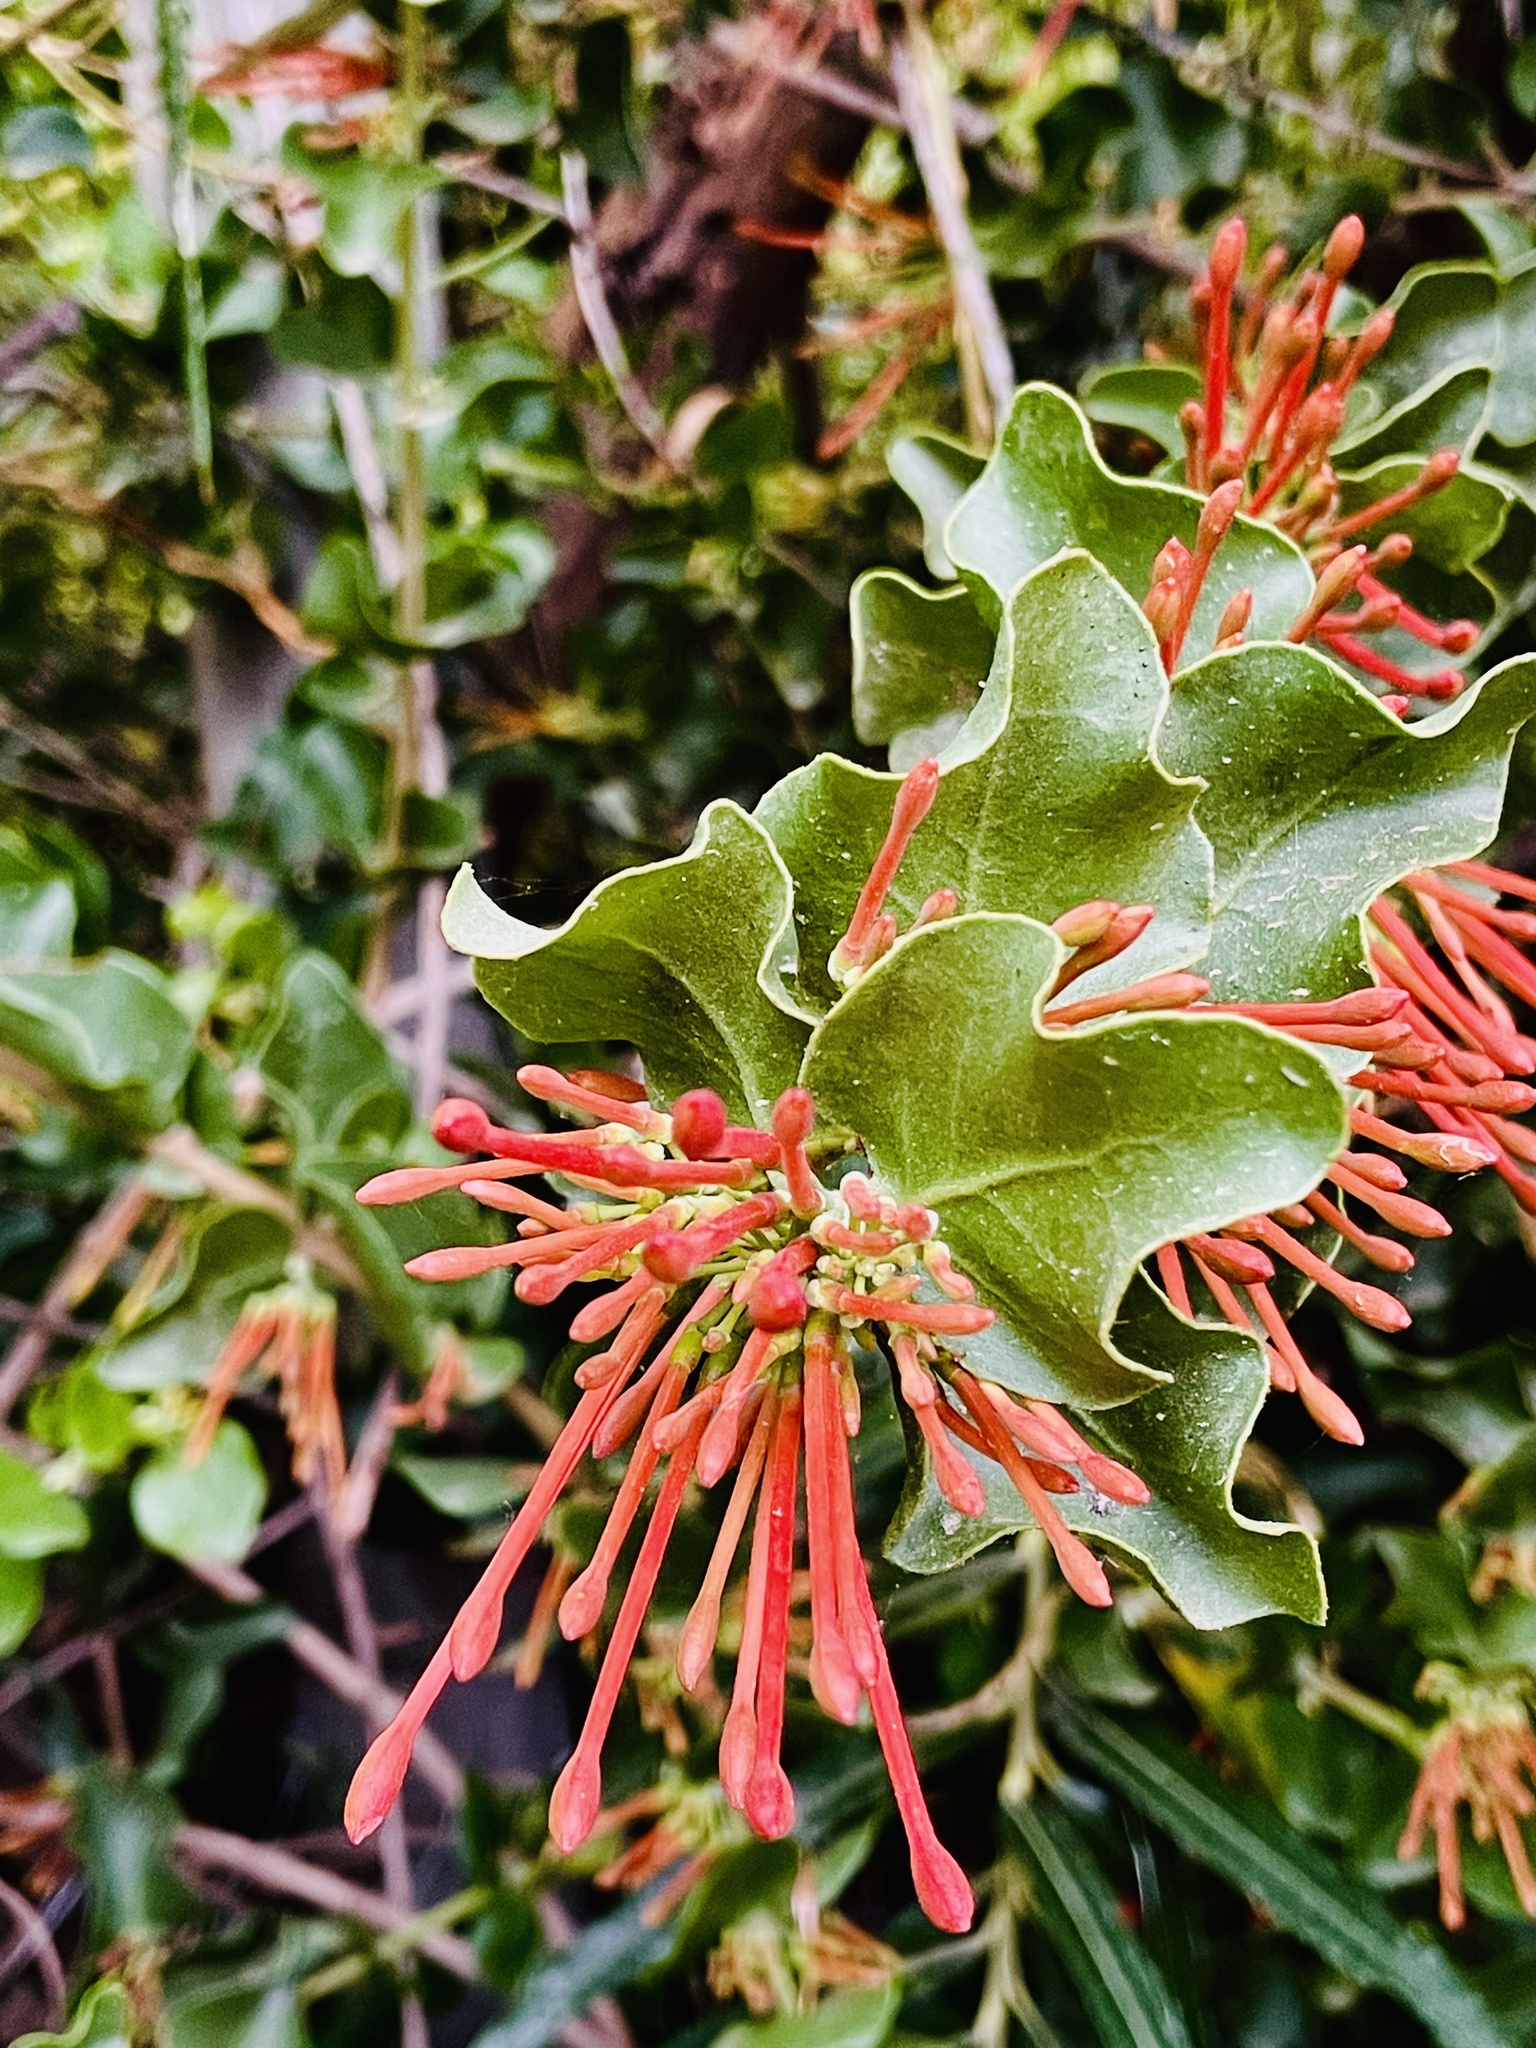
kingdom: Plantae
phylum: Tracheophyta
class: Magnoliopsida
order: Santalales
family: Loranthaceae
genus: Tristerix
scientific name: Tristerix corymbosus
